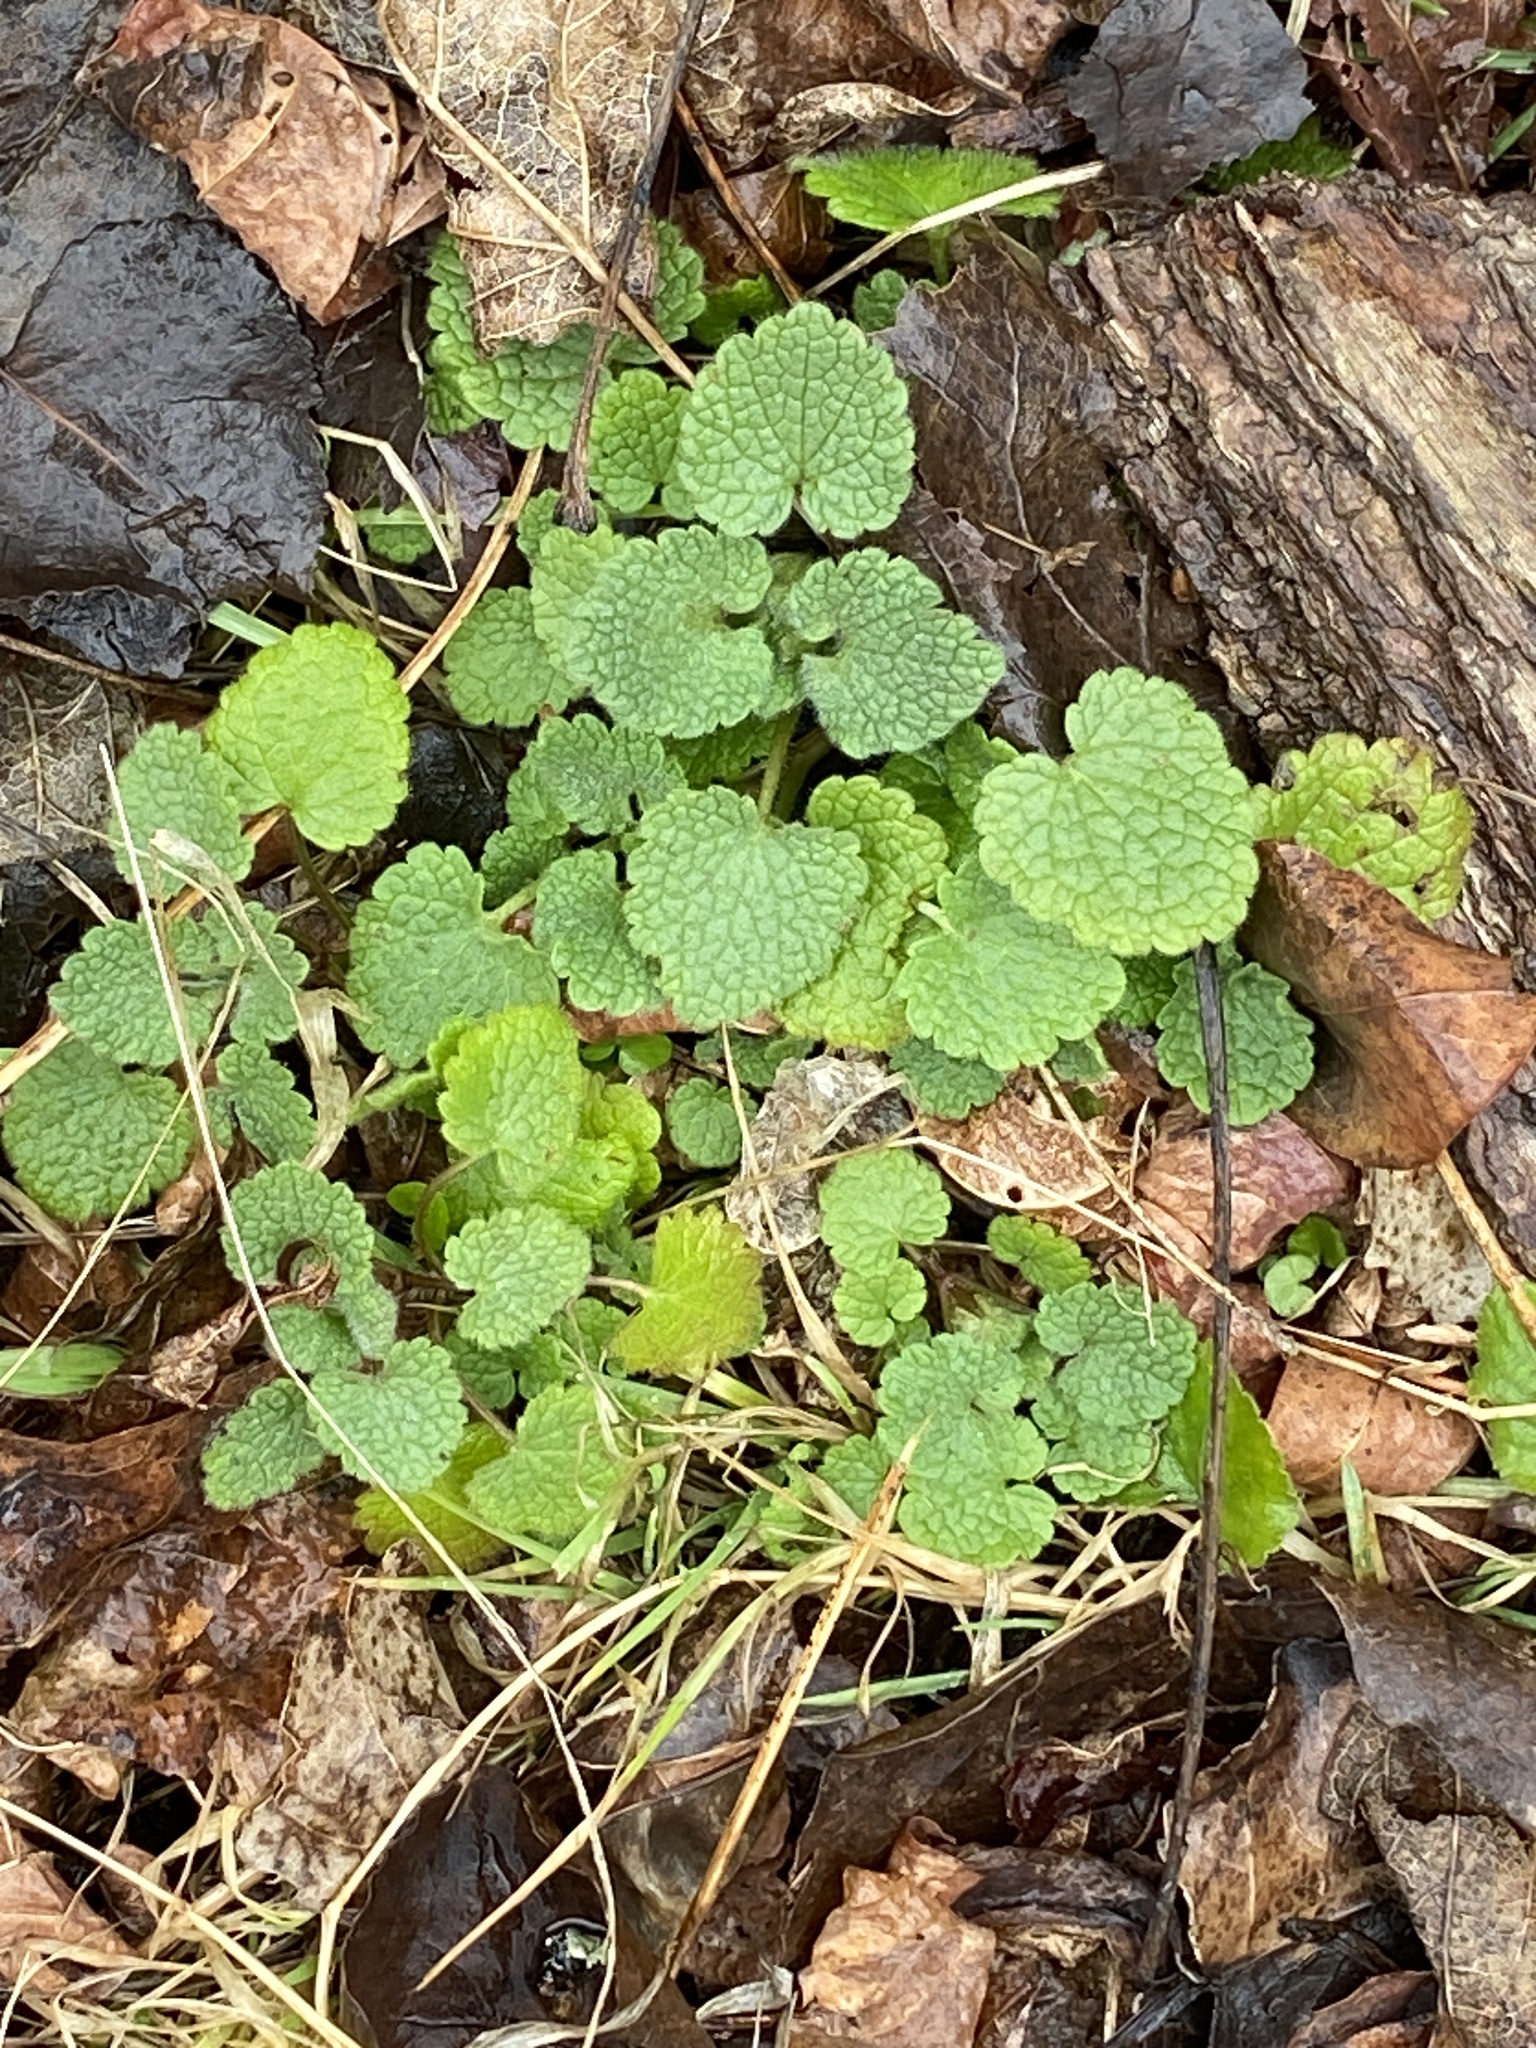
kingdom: Plantae
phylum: Tracheophyta
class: Magnoliopsida
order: Lamiales
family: Lamiaceae
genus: Lamium
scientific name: Lamium purpureum
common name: Red dead-nettle
